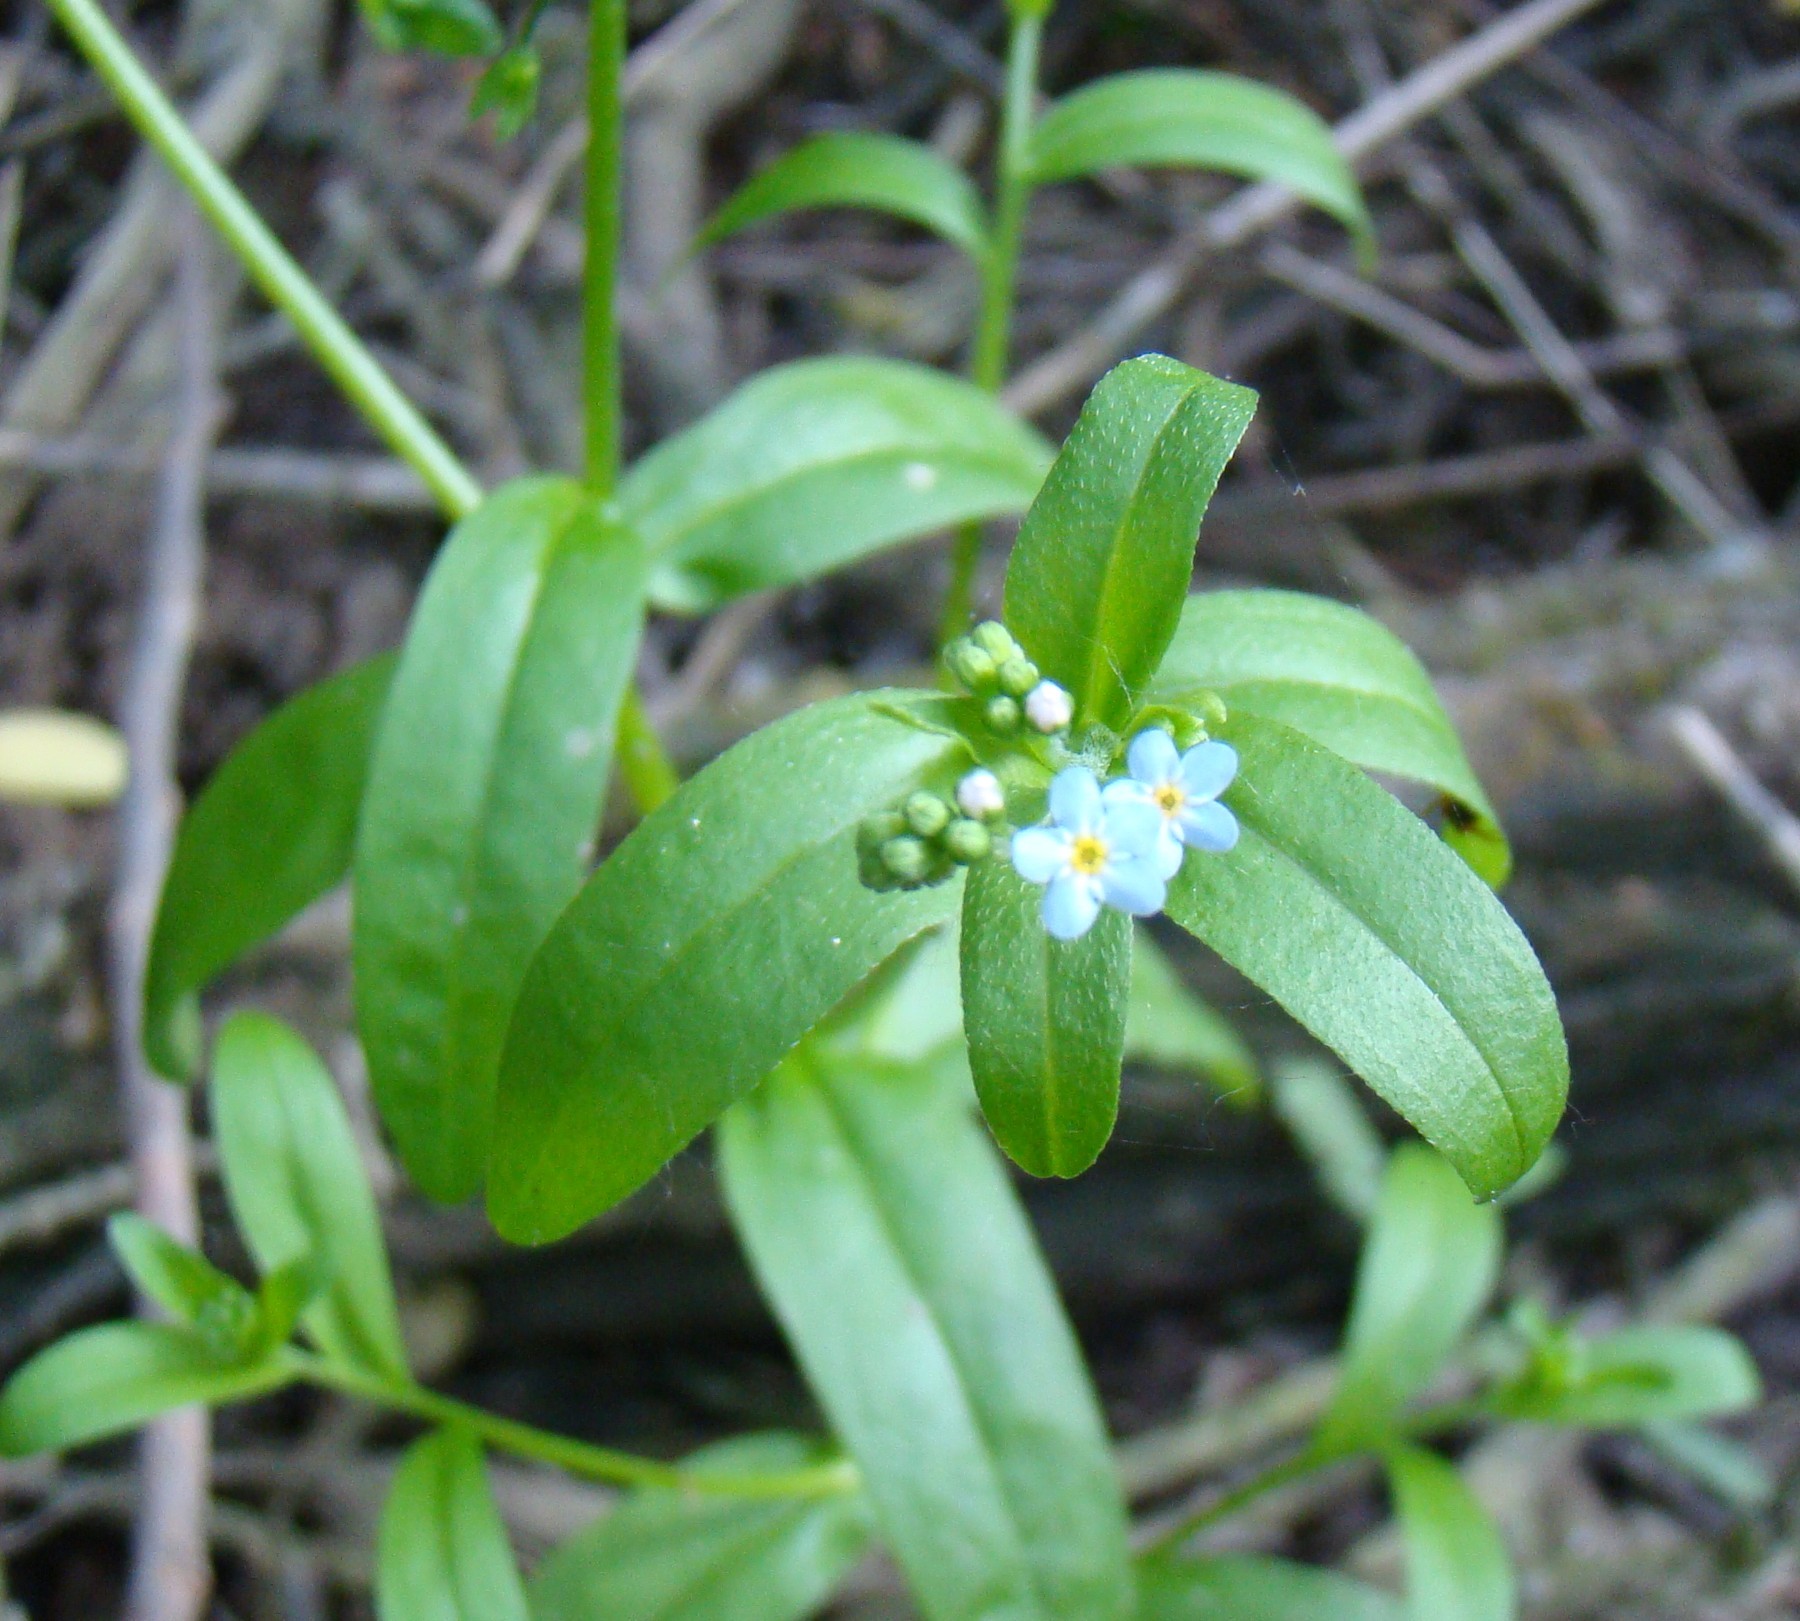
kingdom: Plantae
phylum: Tracheophyta
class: Magnoliopsida
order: Boraginales
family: Boraginaceae
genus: Myosotis
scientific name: Myosotis laxa
